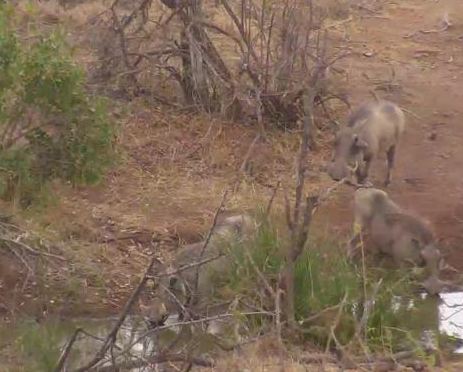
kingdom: Animalia
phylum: Chordata
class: Mammalia
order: Artiodactyla
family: Suidae
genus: Phacochoerus
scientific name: Phacochoerus africanus
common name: Common warthog
